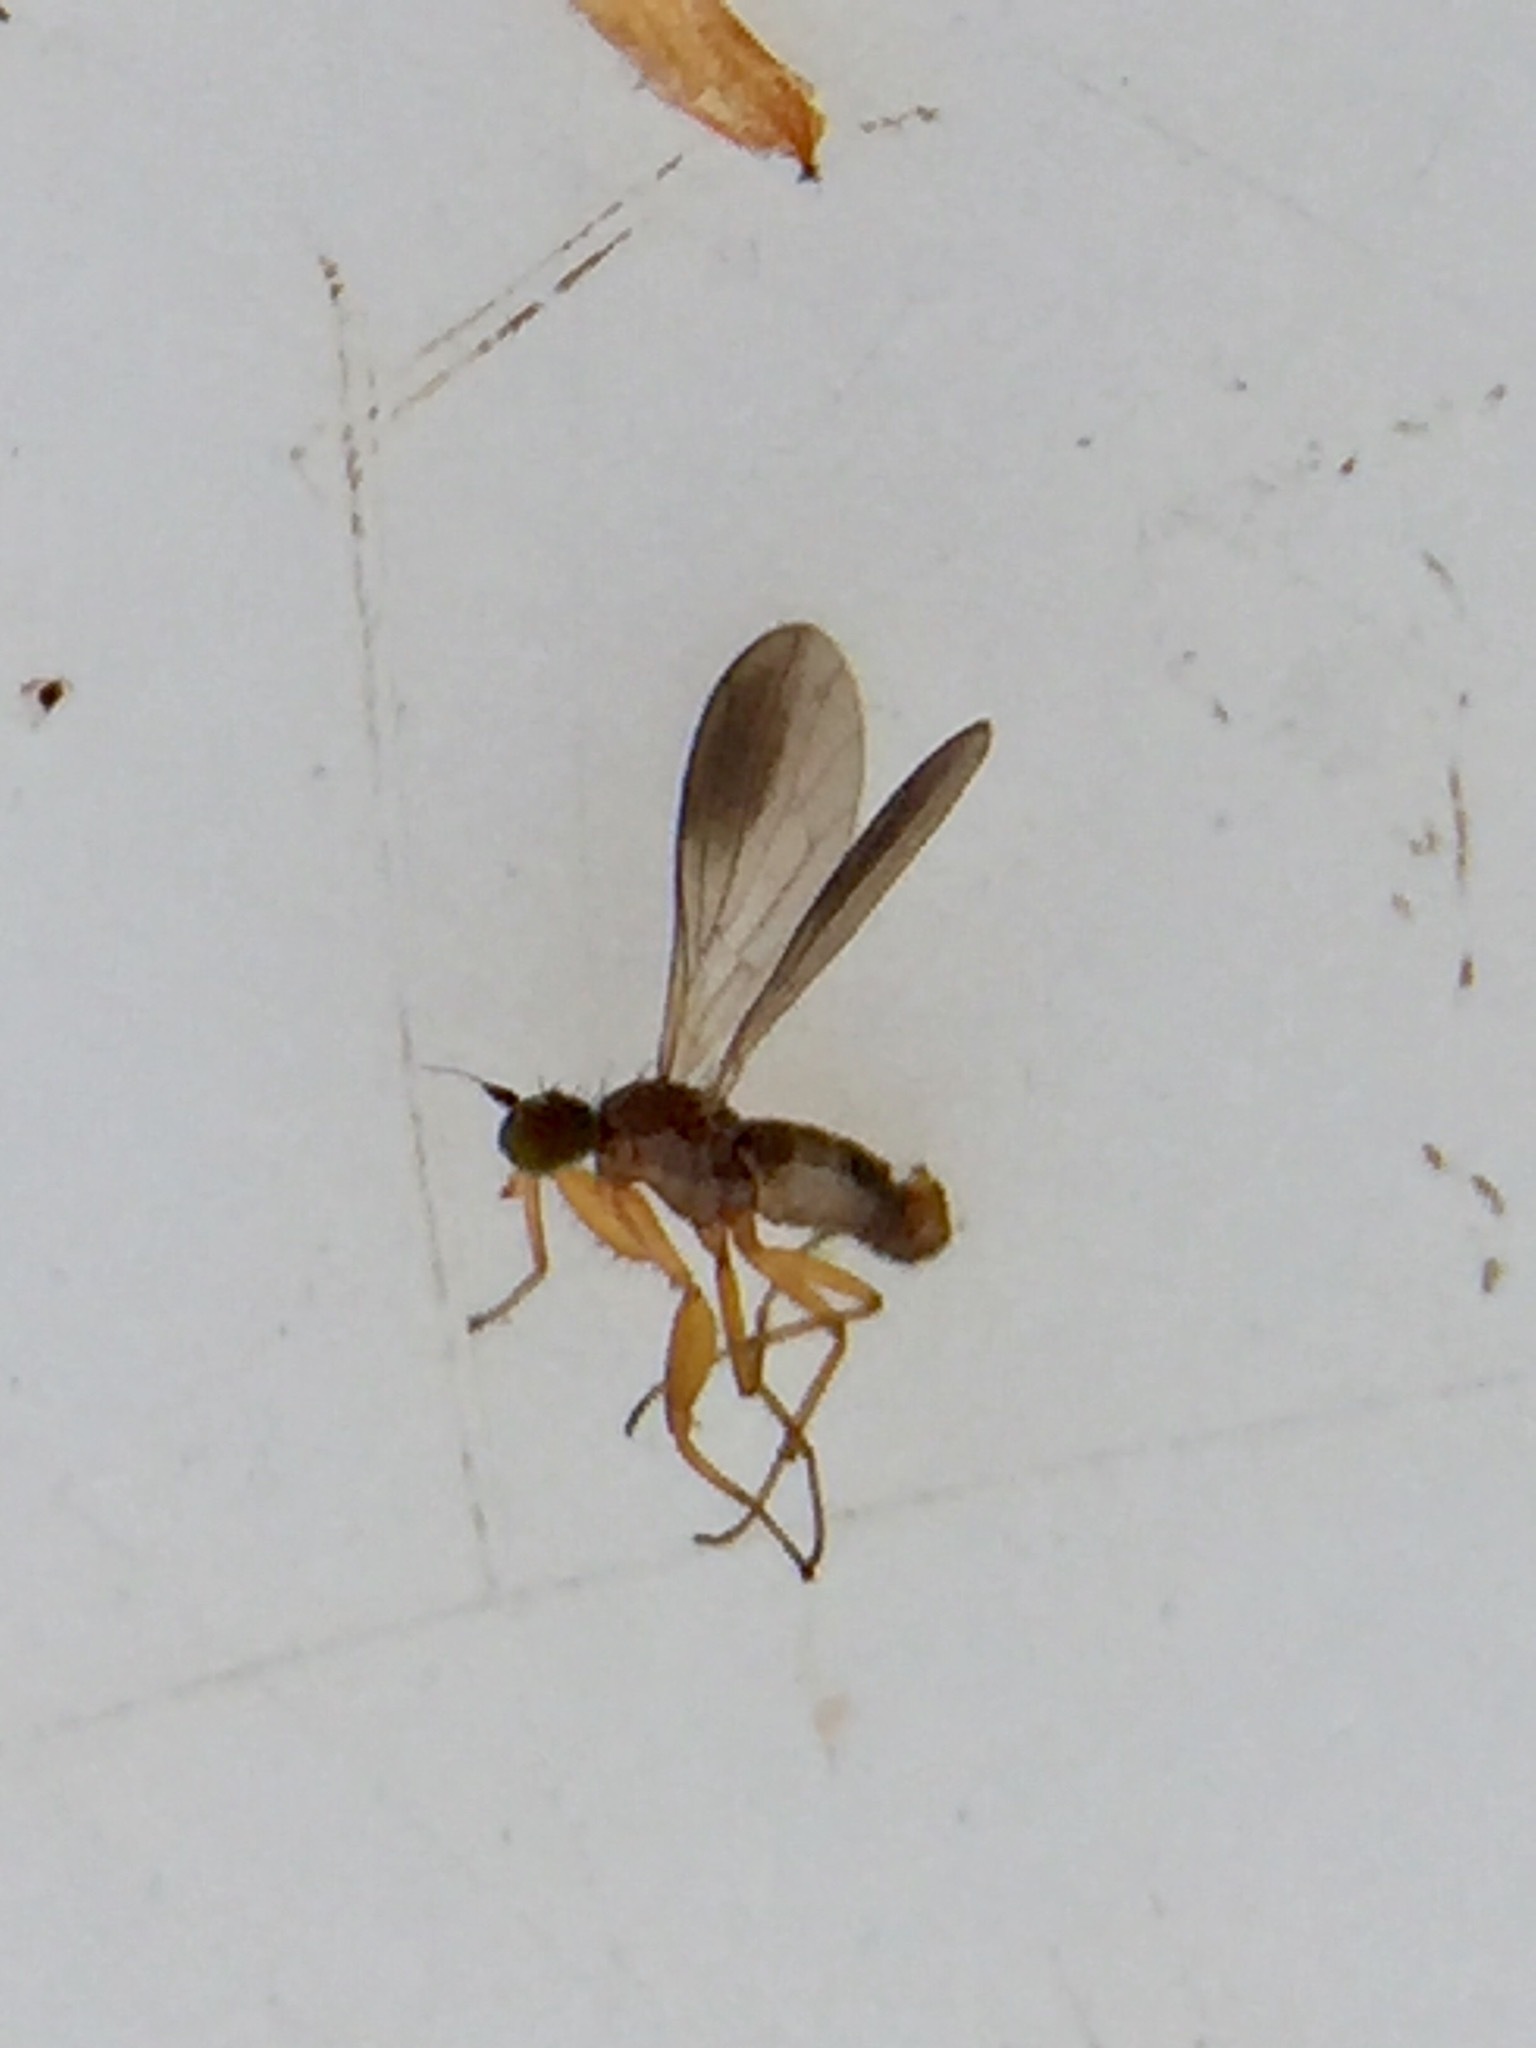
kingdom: Animalia
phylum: Arthropoda
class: Insecta
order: Diptera
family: Empididae
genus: Chelipoda
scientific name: Chelipoda fuscoptera
